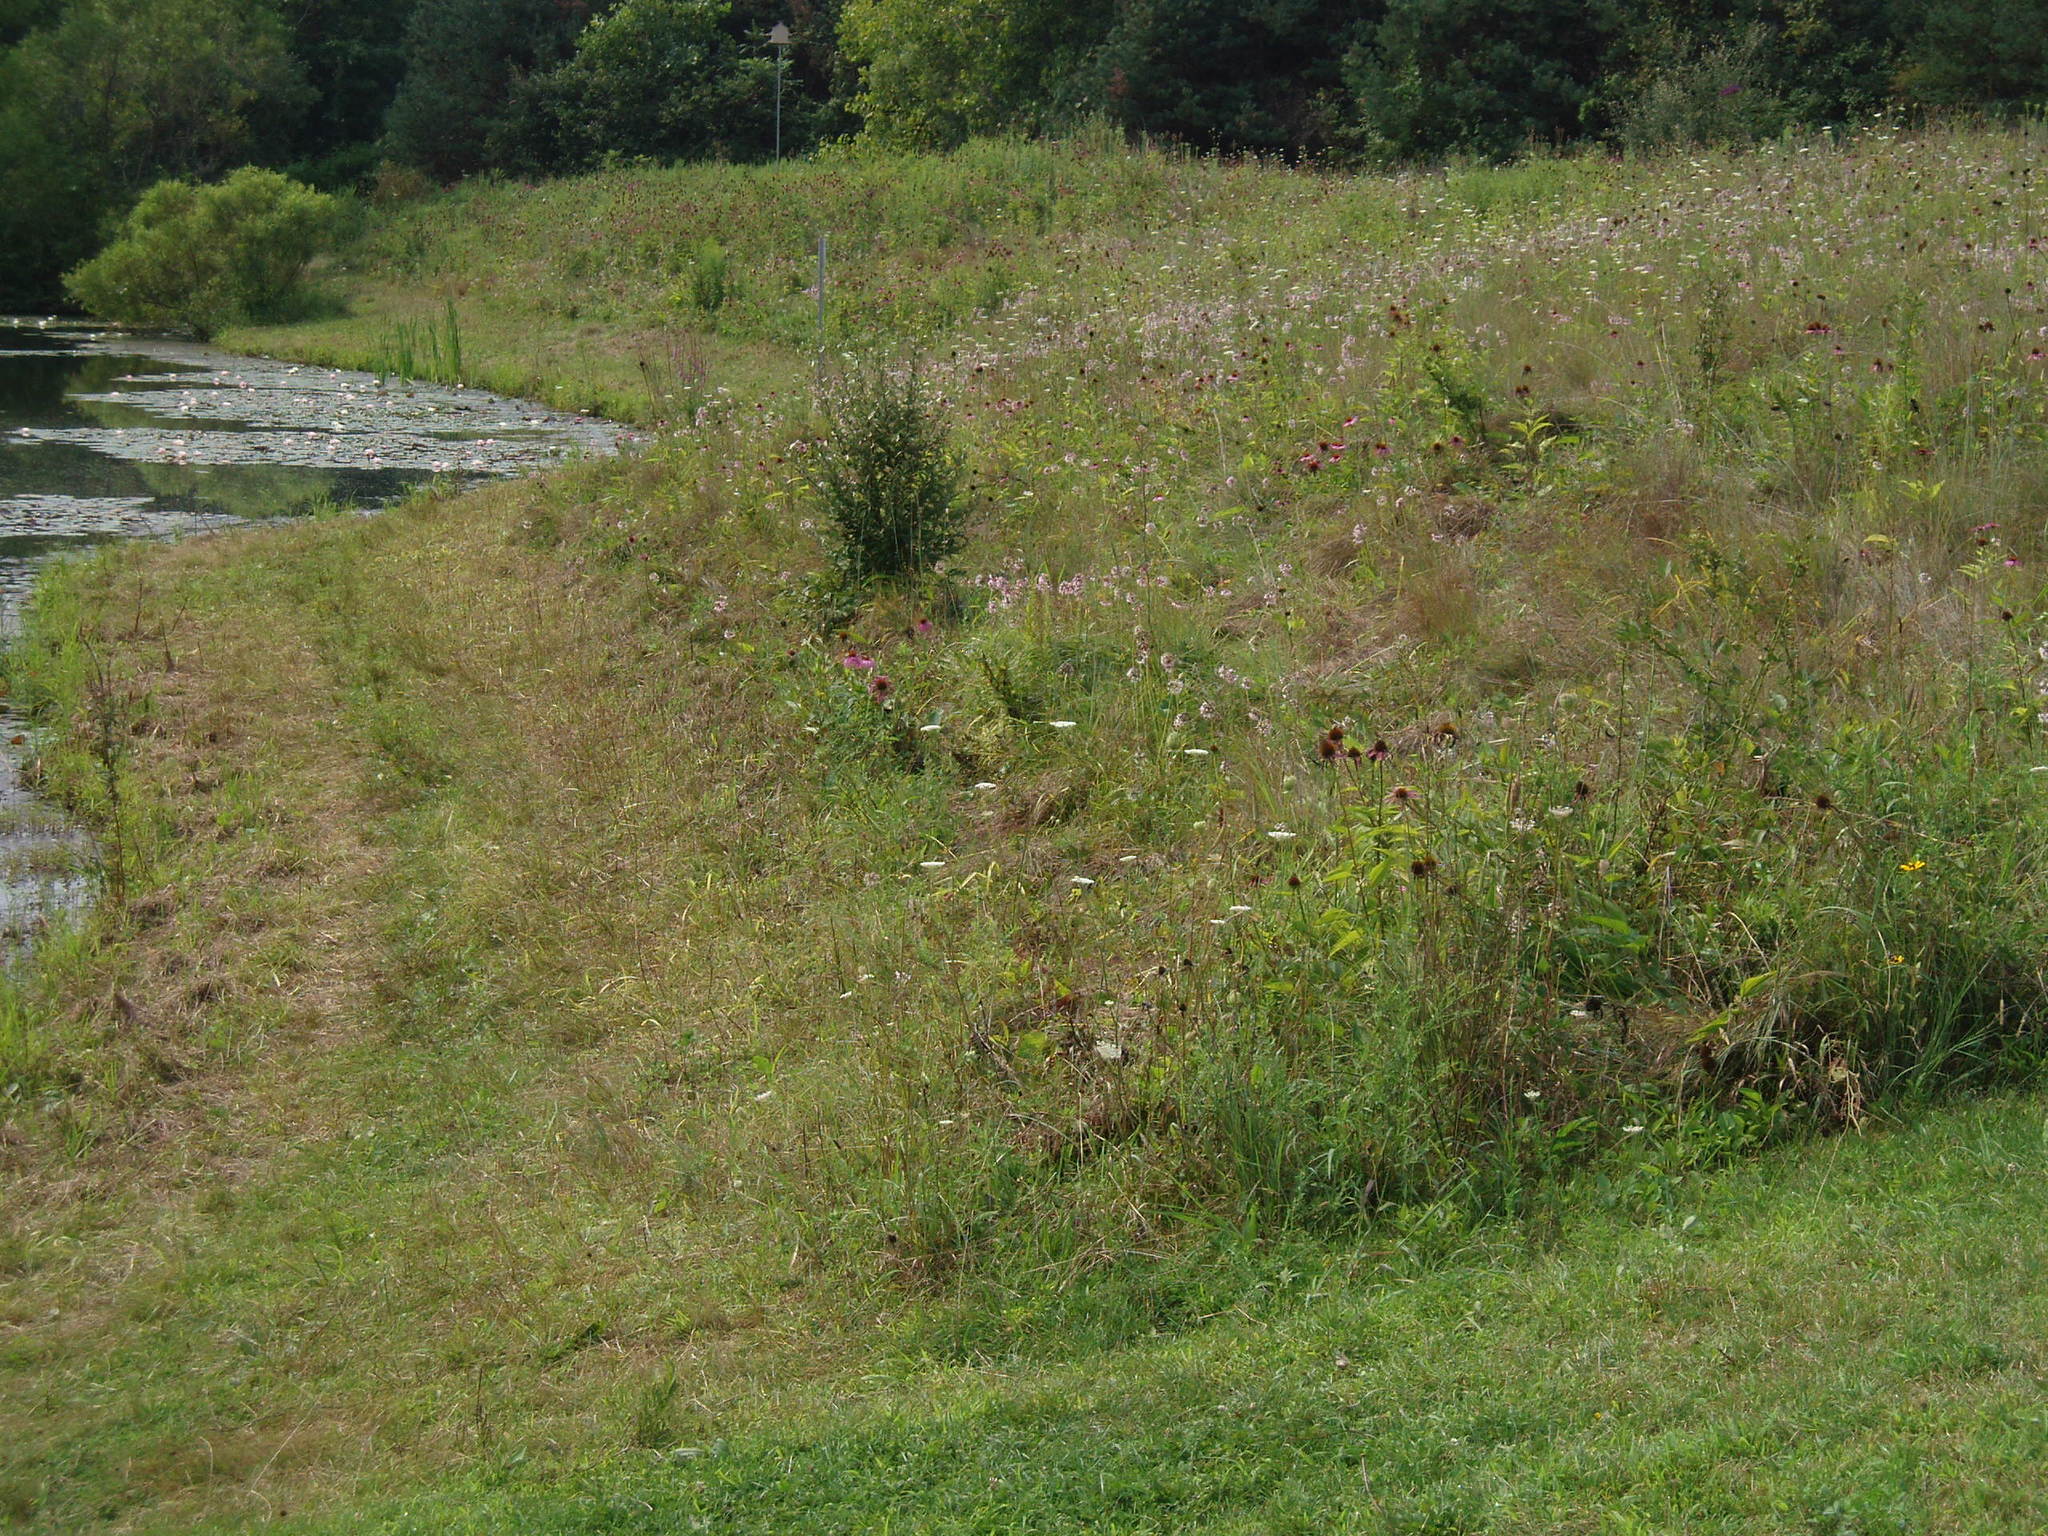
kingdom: Plantae
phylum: Tracheophyta
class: Magnoliopsida
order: Asterales
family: Asteraceae
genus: Echinacea
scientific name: Echinacea purpurea
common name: Broad-leaved purple coneflower
